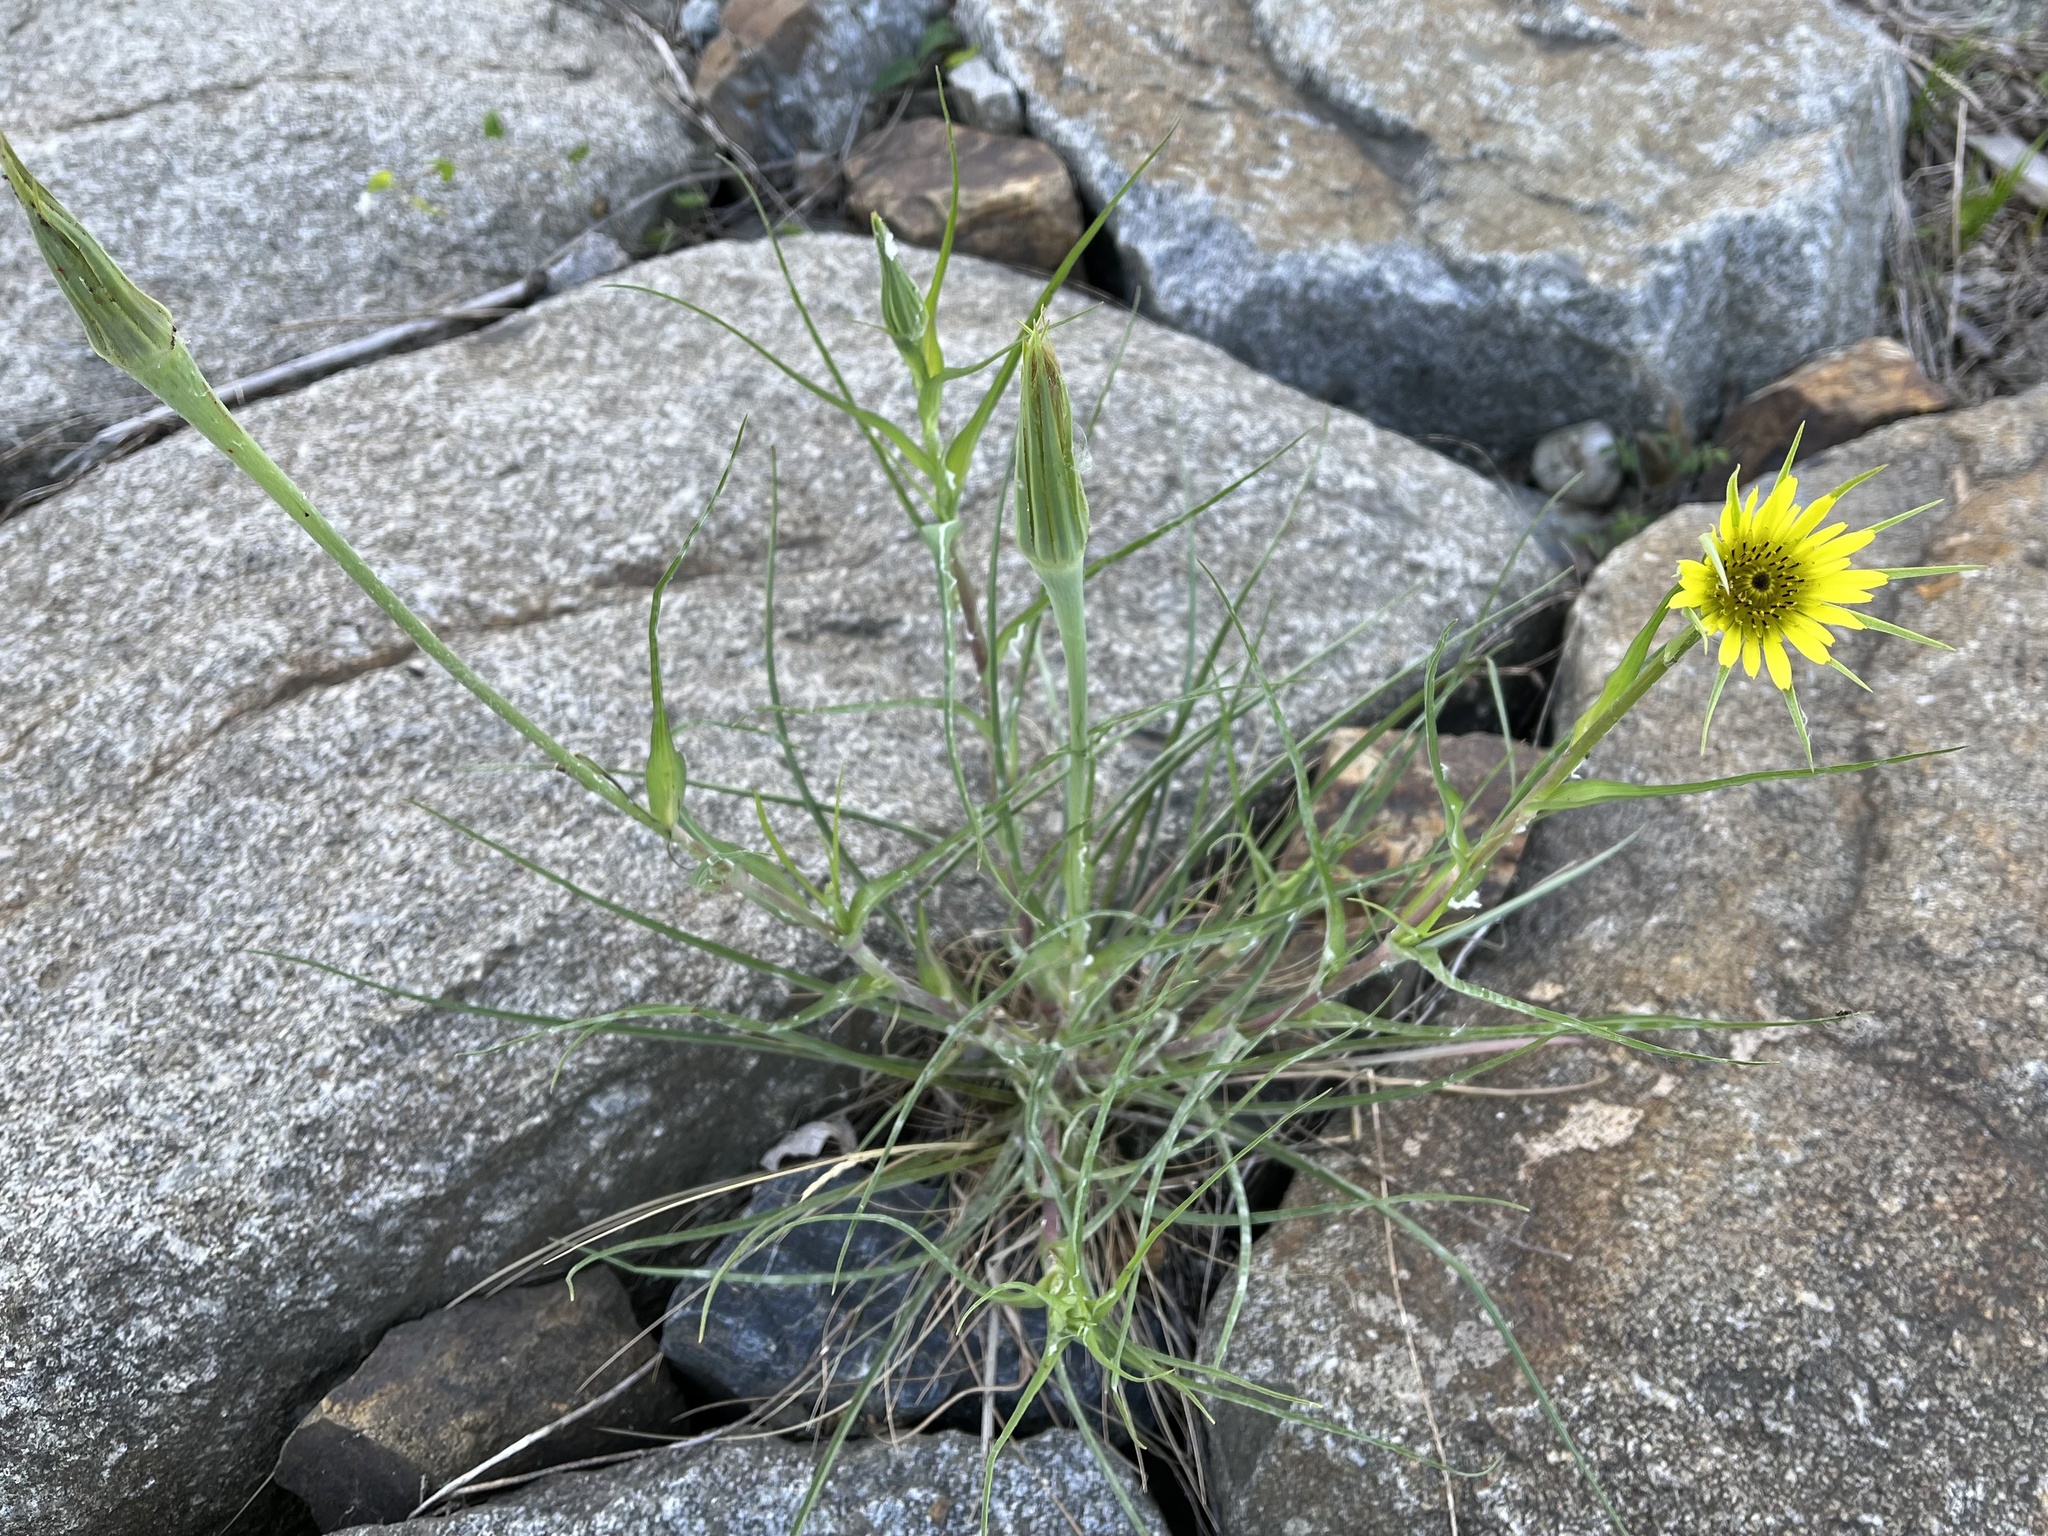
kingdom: Plantae
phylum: Tracheophyta
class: Magnoliopsida
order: Asterales
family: Asteraceae
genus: Tragopogon
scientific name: Tragopogon dubius
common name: Yellow salsify
